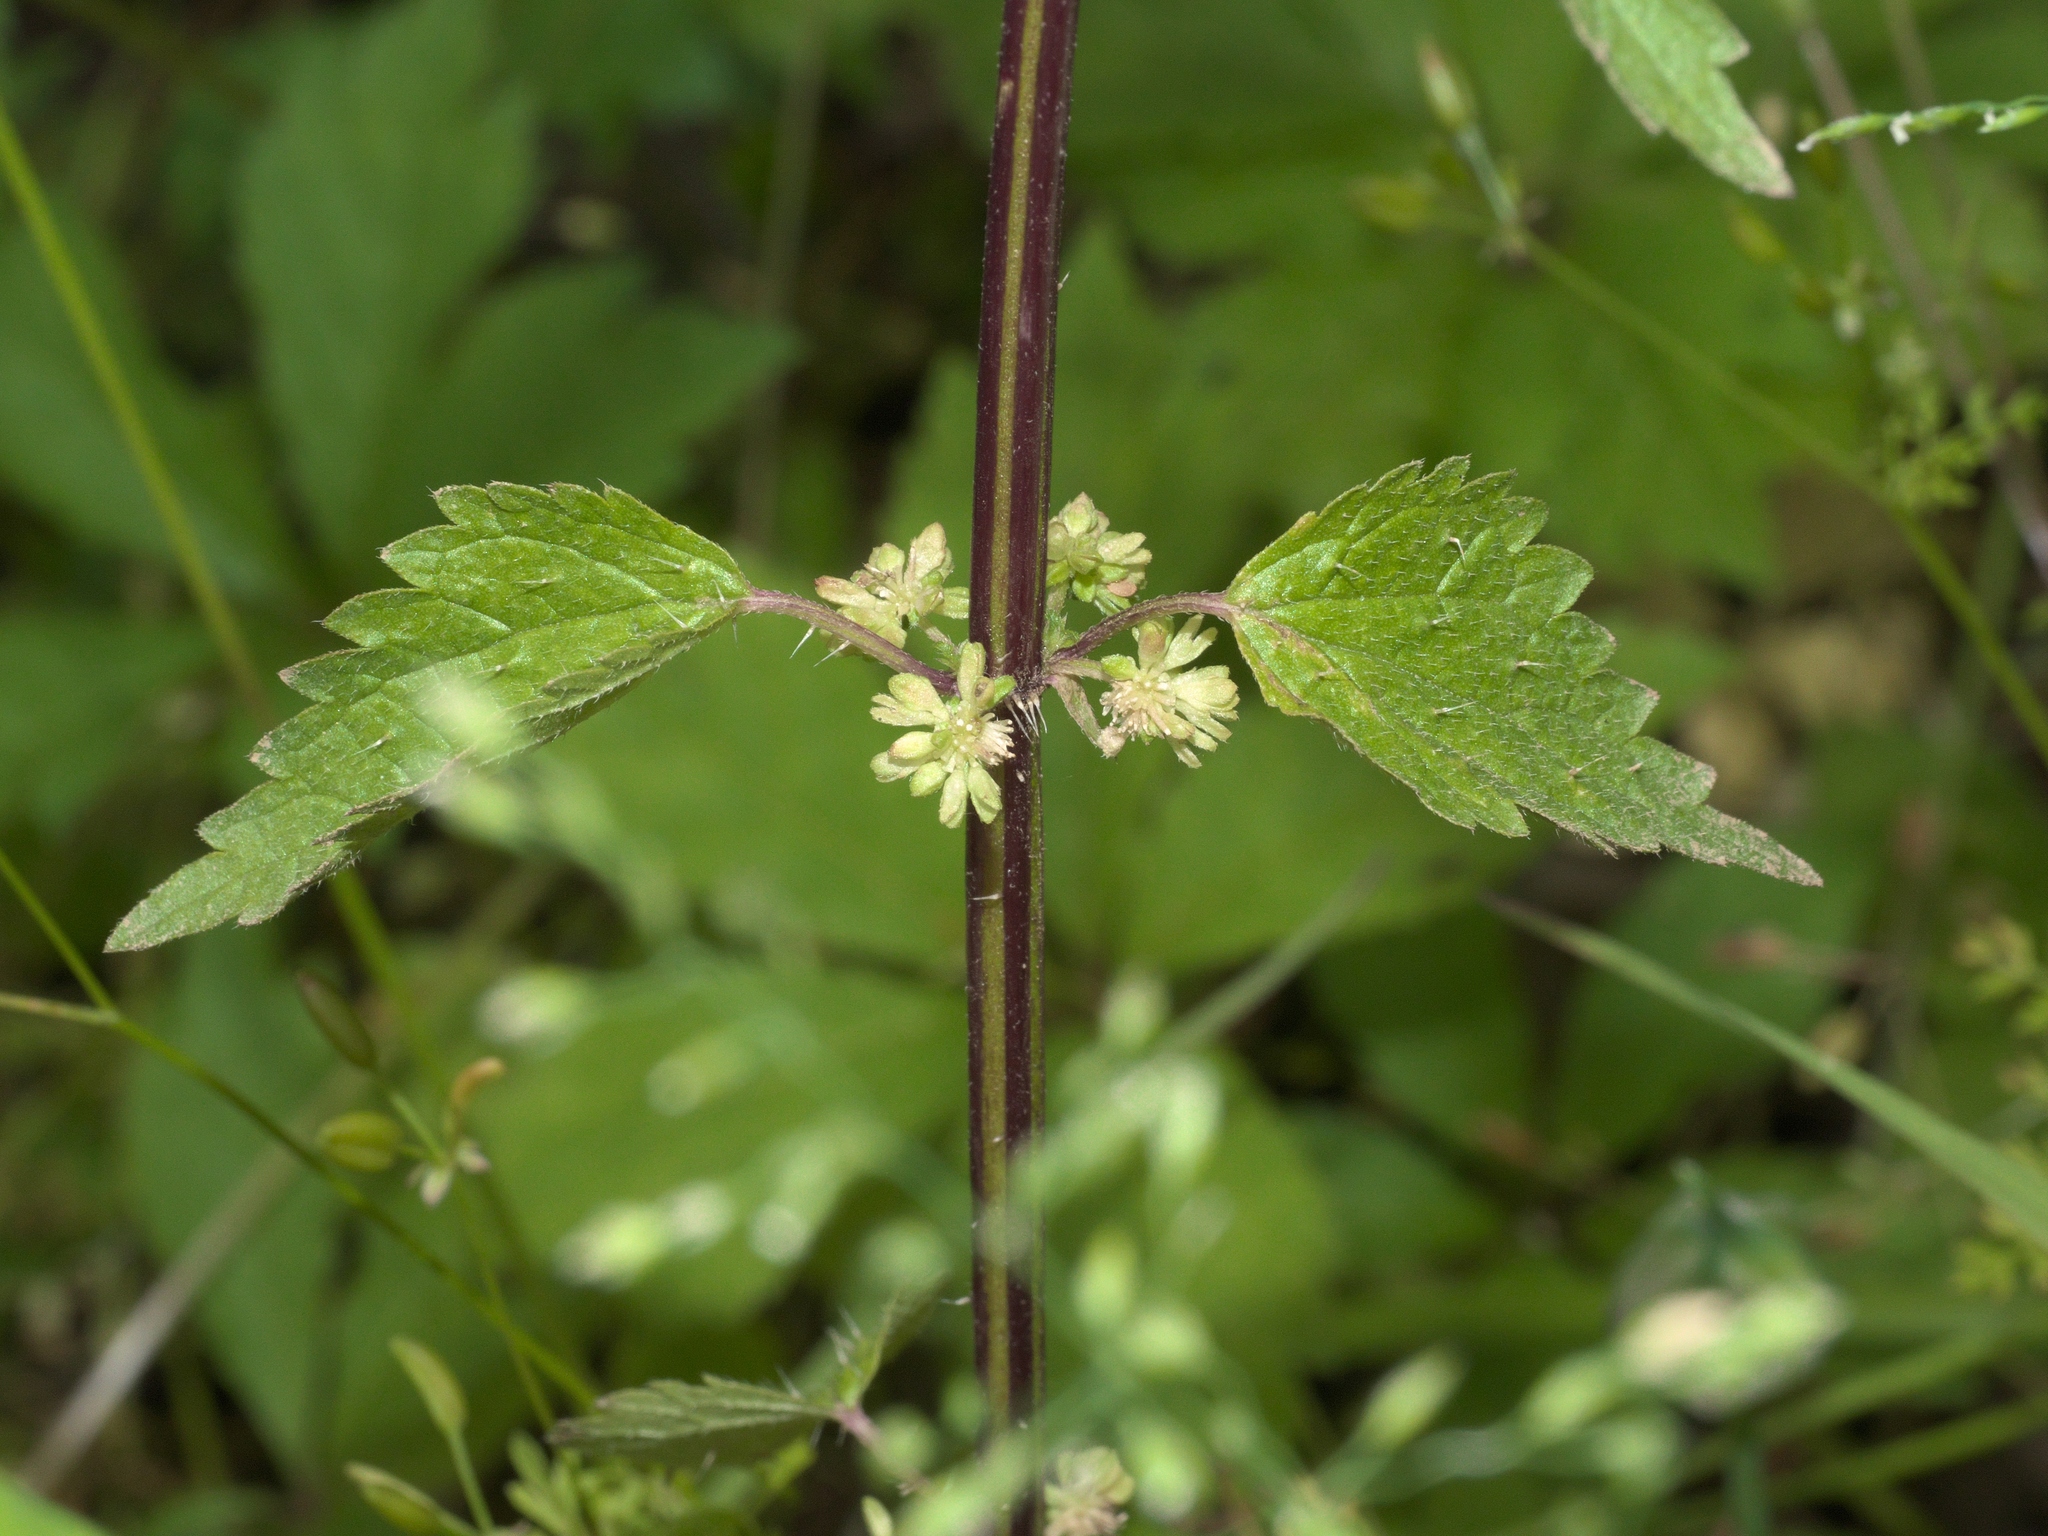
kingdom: Plantae
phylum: Tracheophyta
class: Magnoliopsida
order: Rosales
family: Urticaceae
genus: Urtica
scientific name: Urtica chamaedryoides
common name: Heart-leaf nettle
